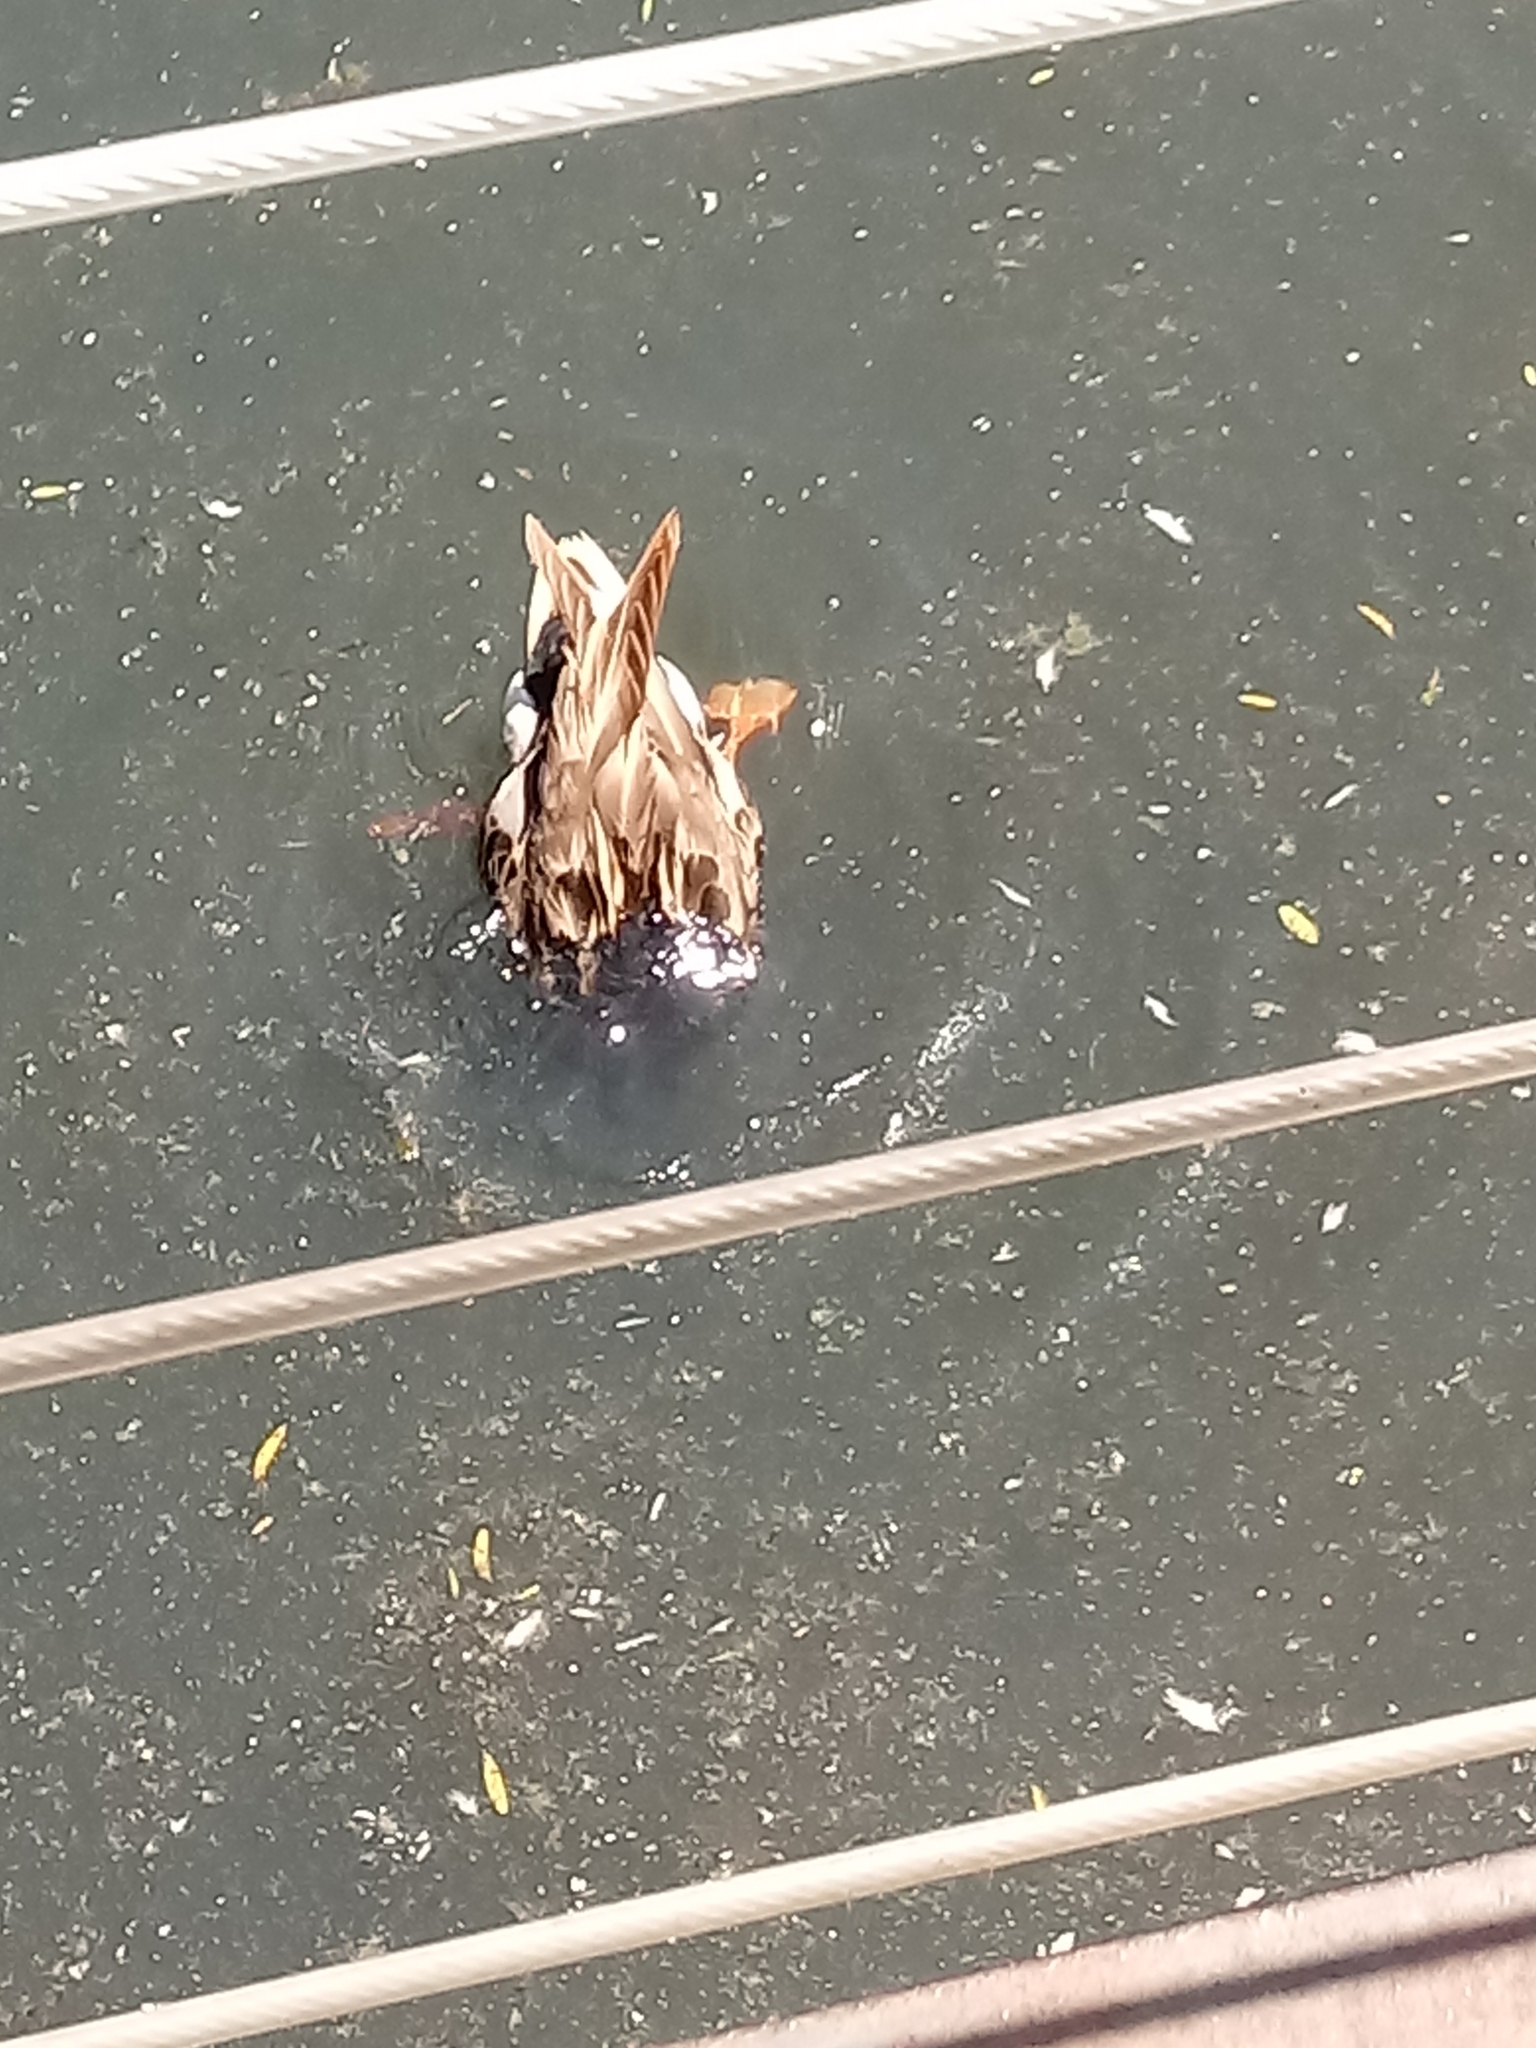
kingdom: Animalia
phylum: Chordata
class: Aves
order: Anseriformes
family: Anatidae
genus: Anas
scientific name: Anas platyrhynchos
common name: Mallard
